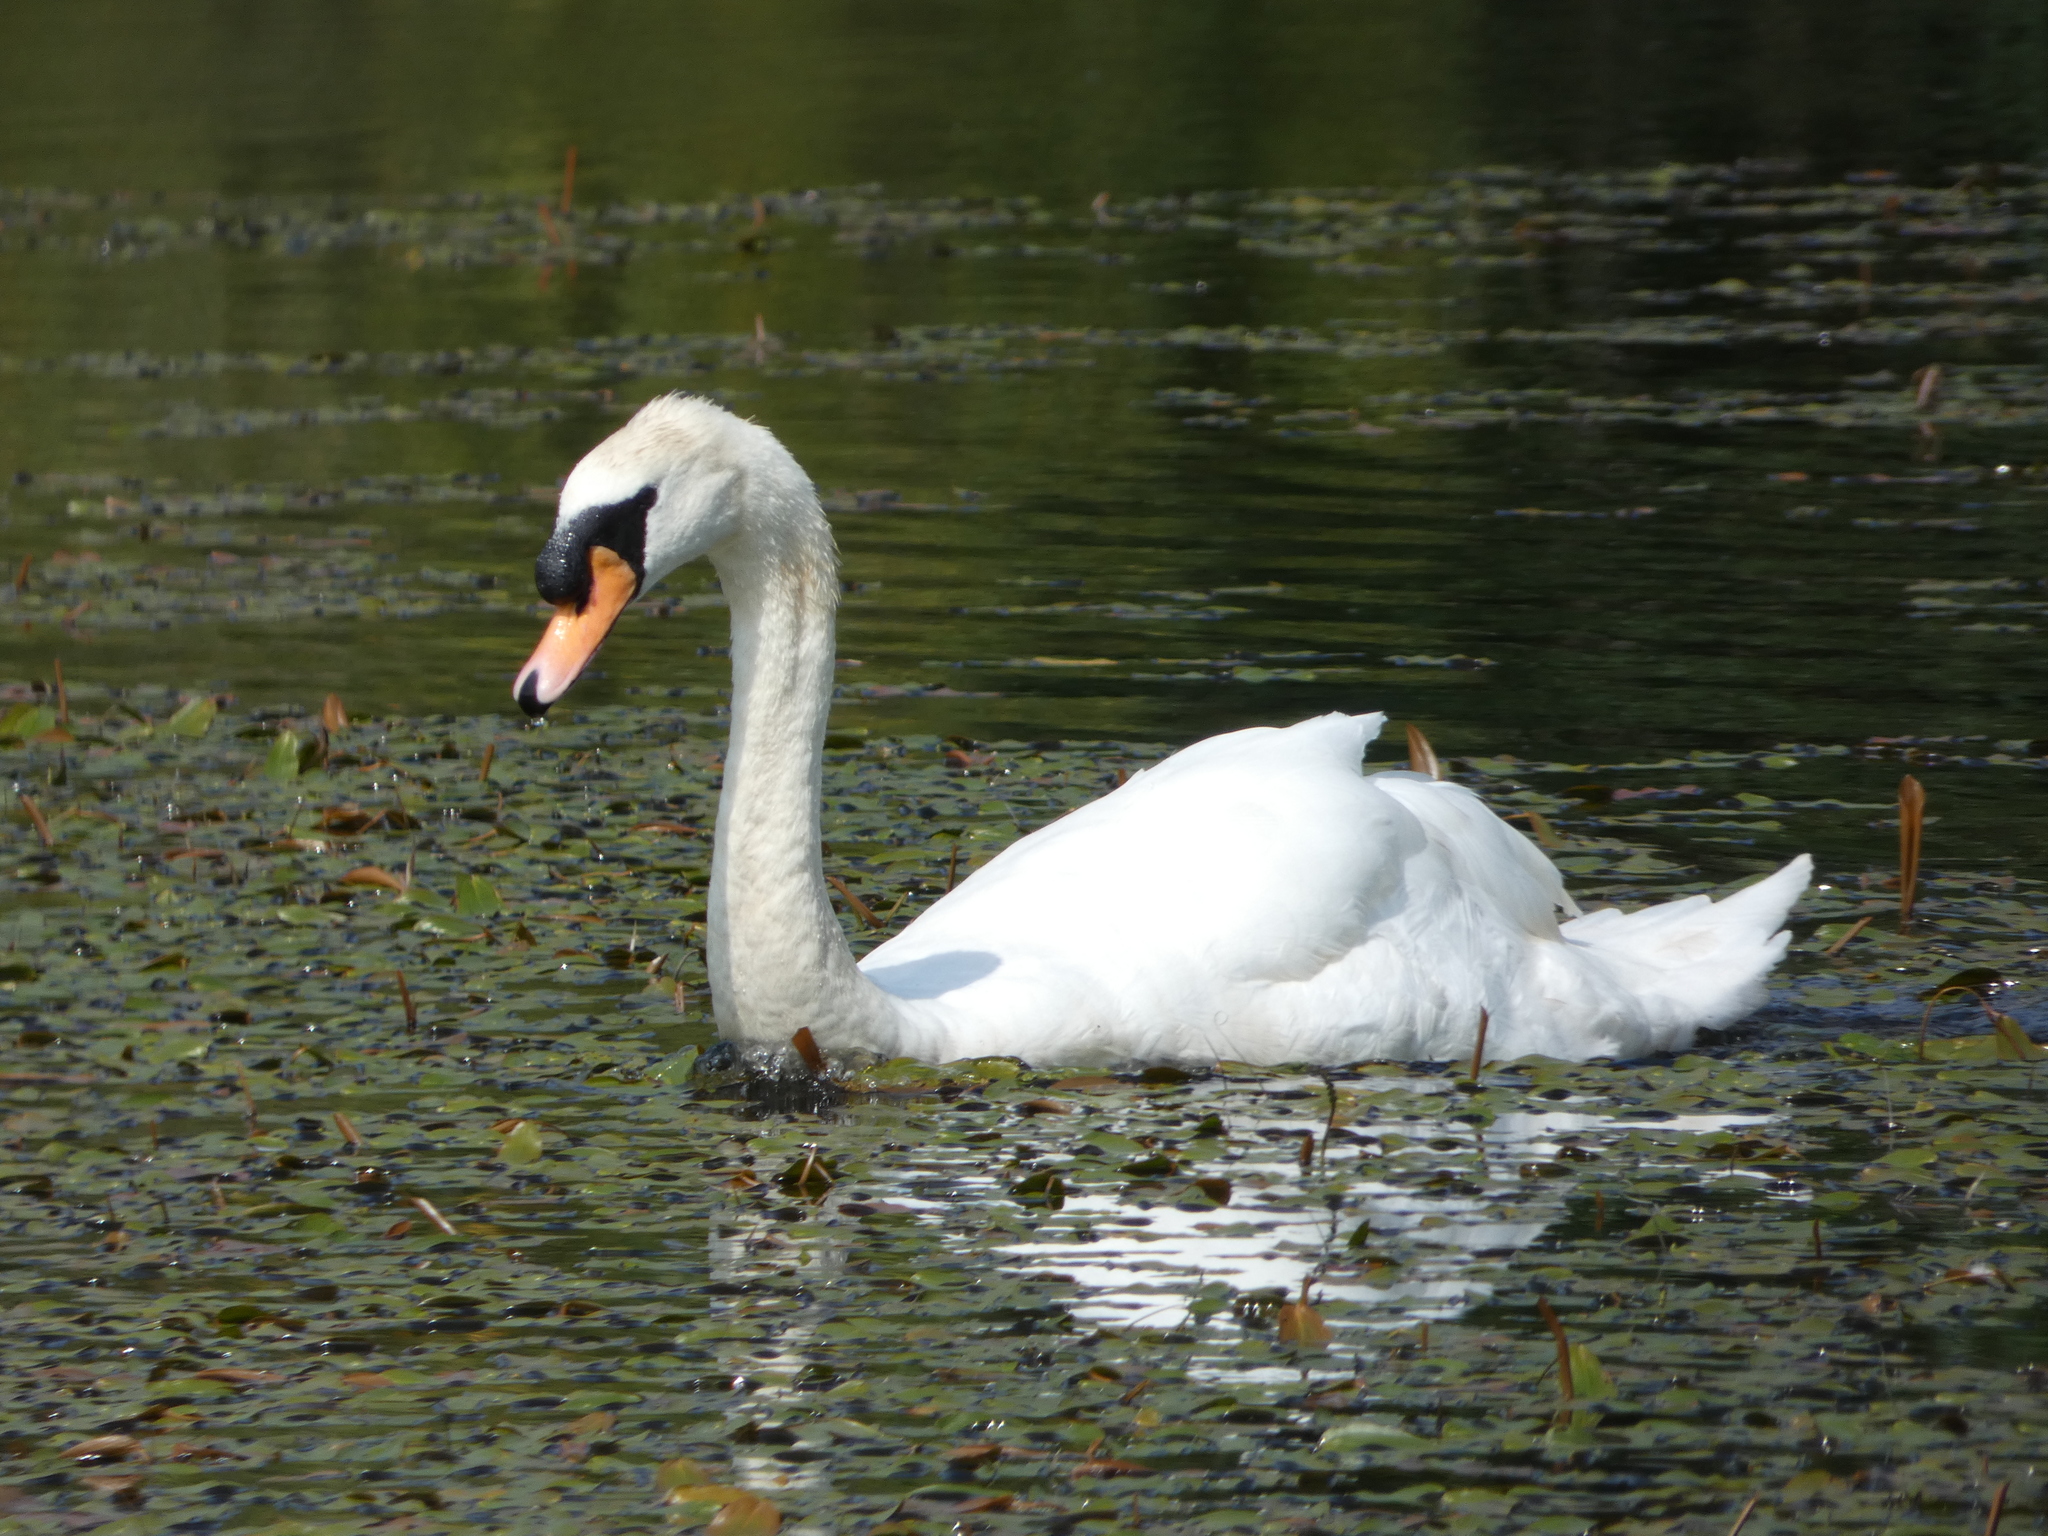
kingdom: Animalia
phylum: Chordata
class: Aves
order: Anseriformes
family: Anatidae
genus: Cygnus
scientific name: Cygnus olor
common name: Mute swan
